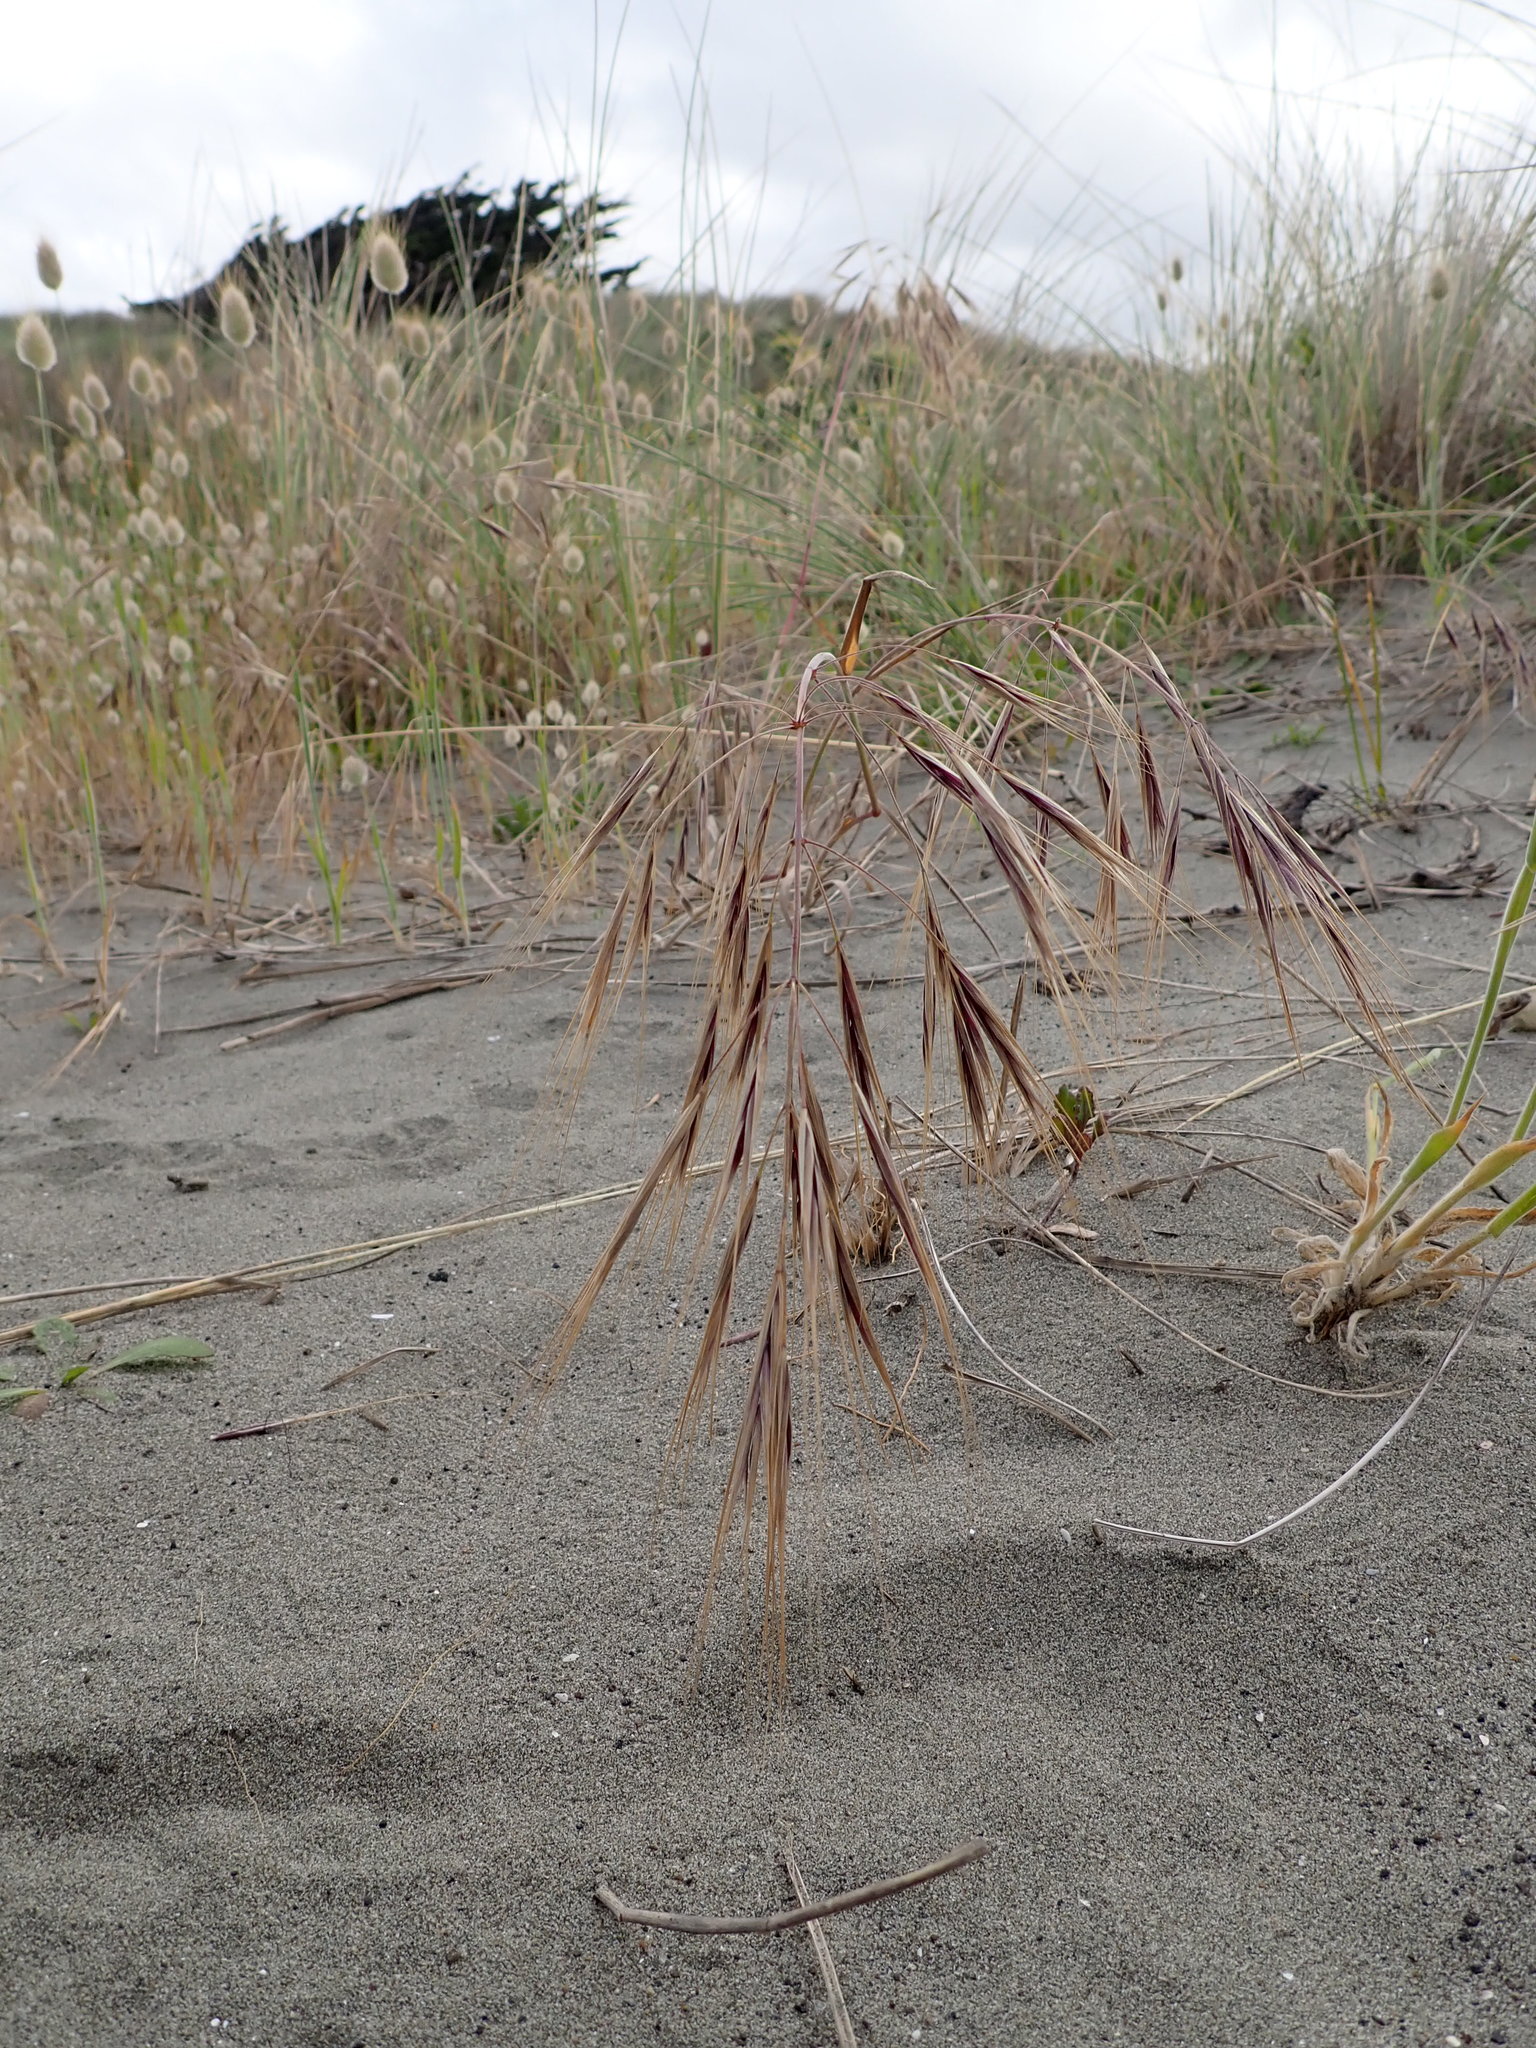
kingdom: Plantae
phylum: Tracheophyta
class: Liliopsida
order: Poales
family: Poaceae
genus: Bromus
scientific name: Bromus diandrus
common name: Ripgut brome
